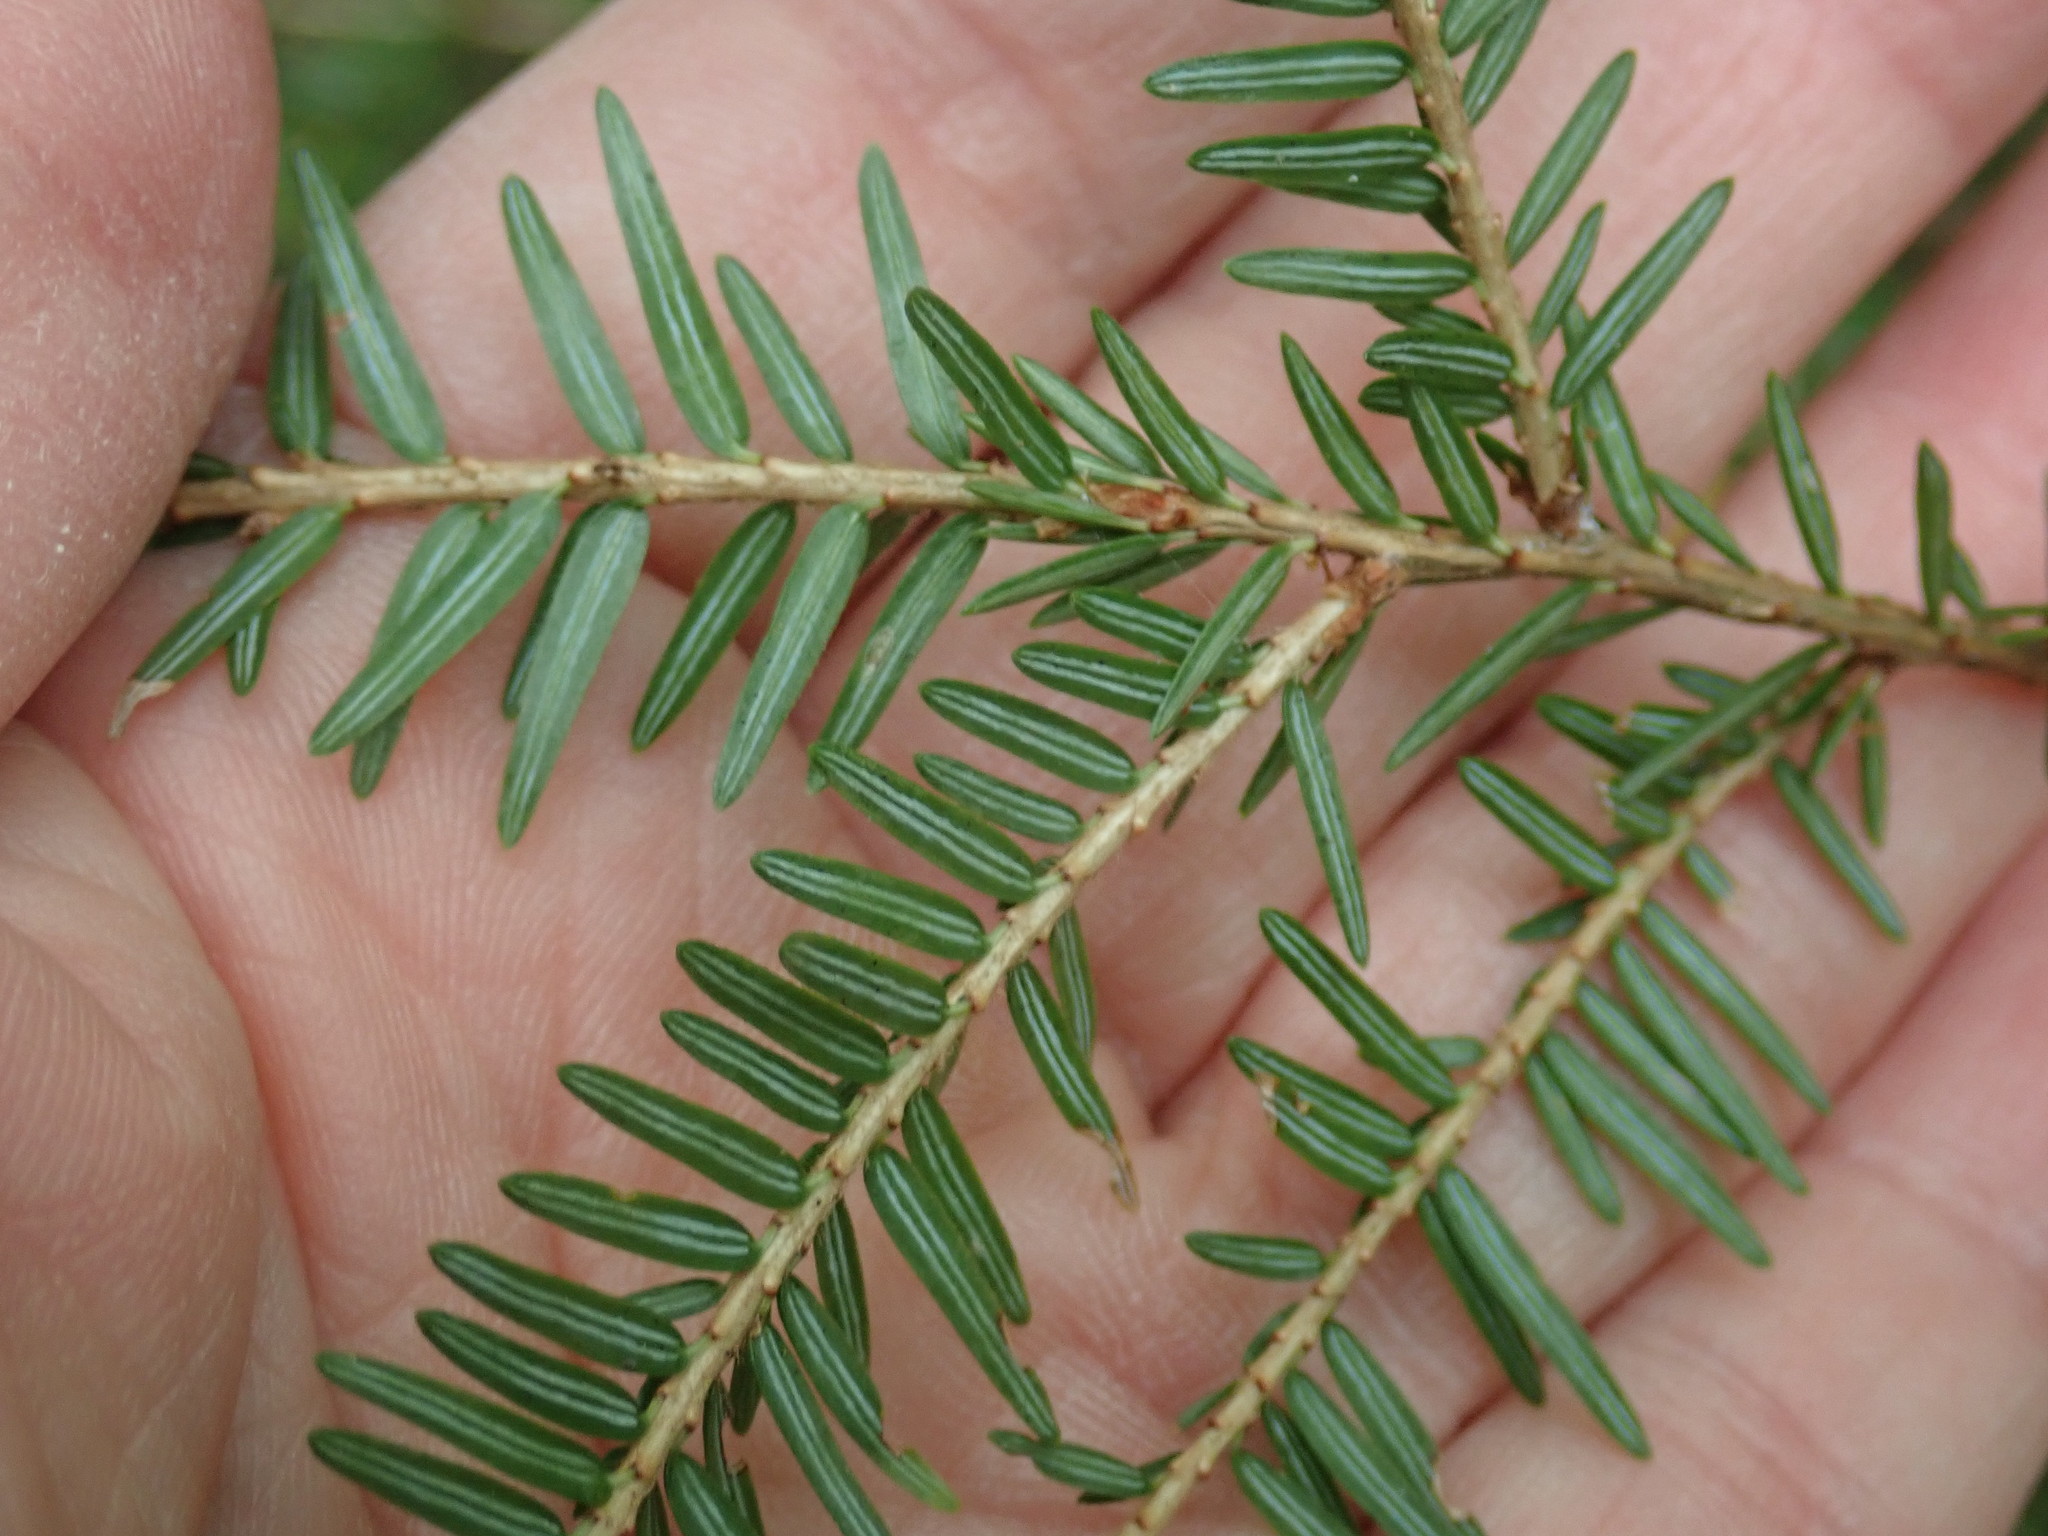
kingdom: Plantae
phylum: Tracheophyta
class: Pinopsida
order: Pinales
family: Pinaceae
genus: Tsuga
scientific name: Tsuga canadensis
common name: Eastern hemlock
